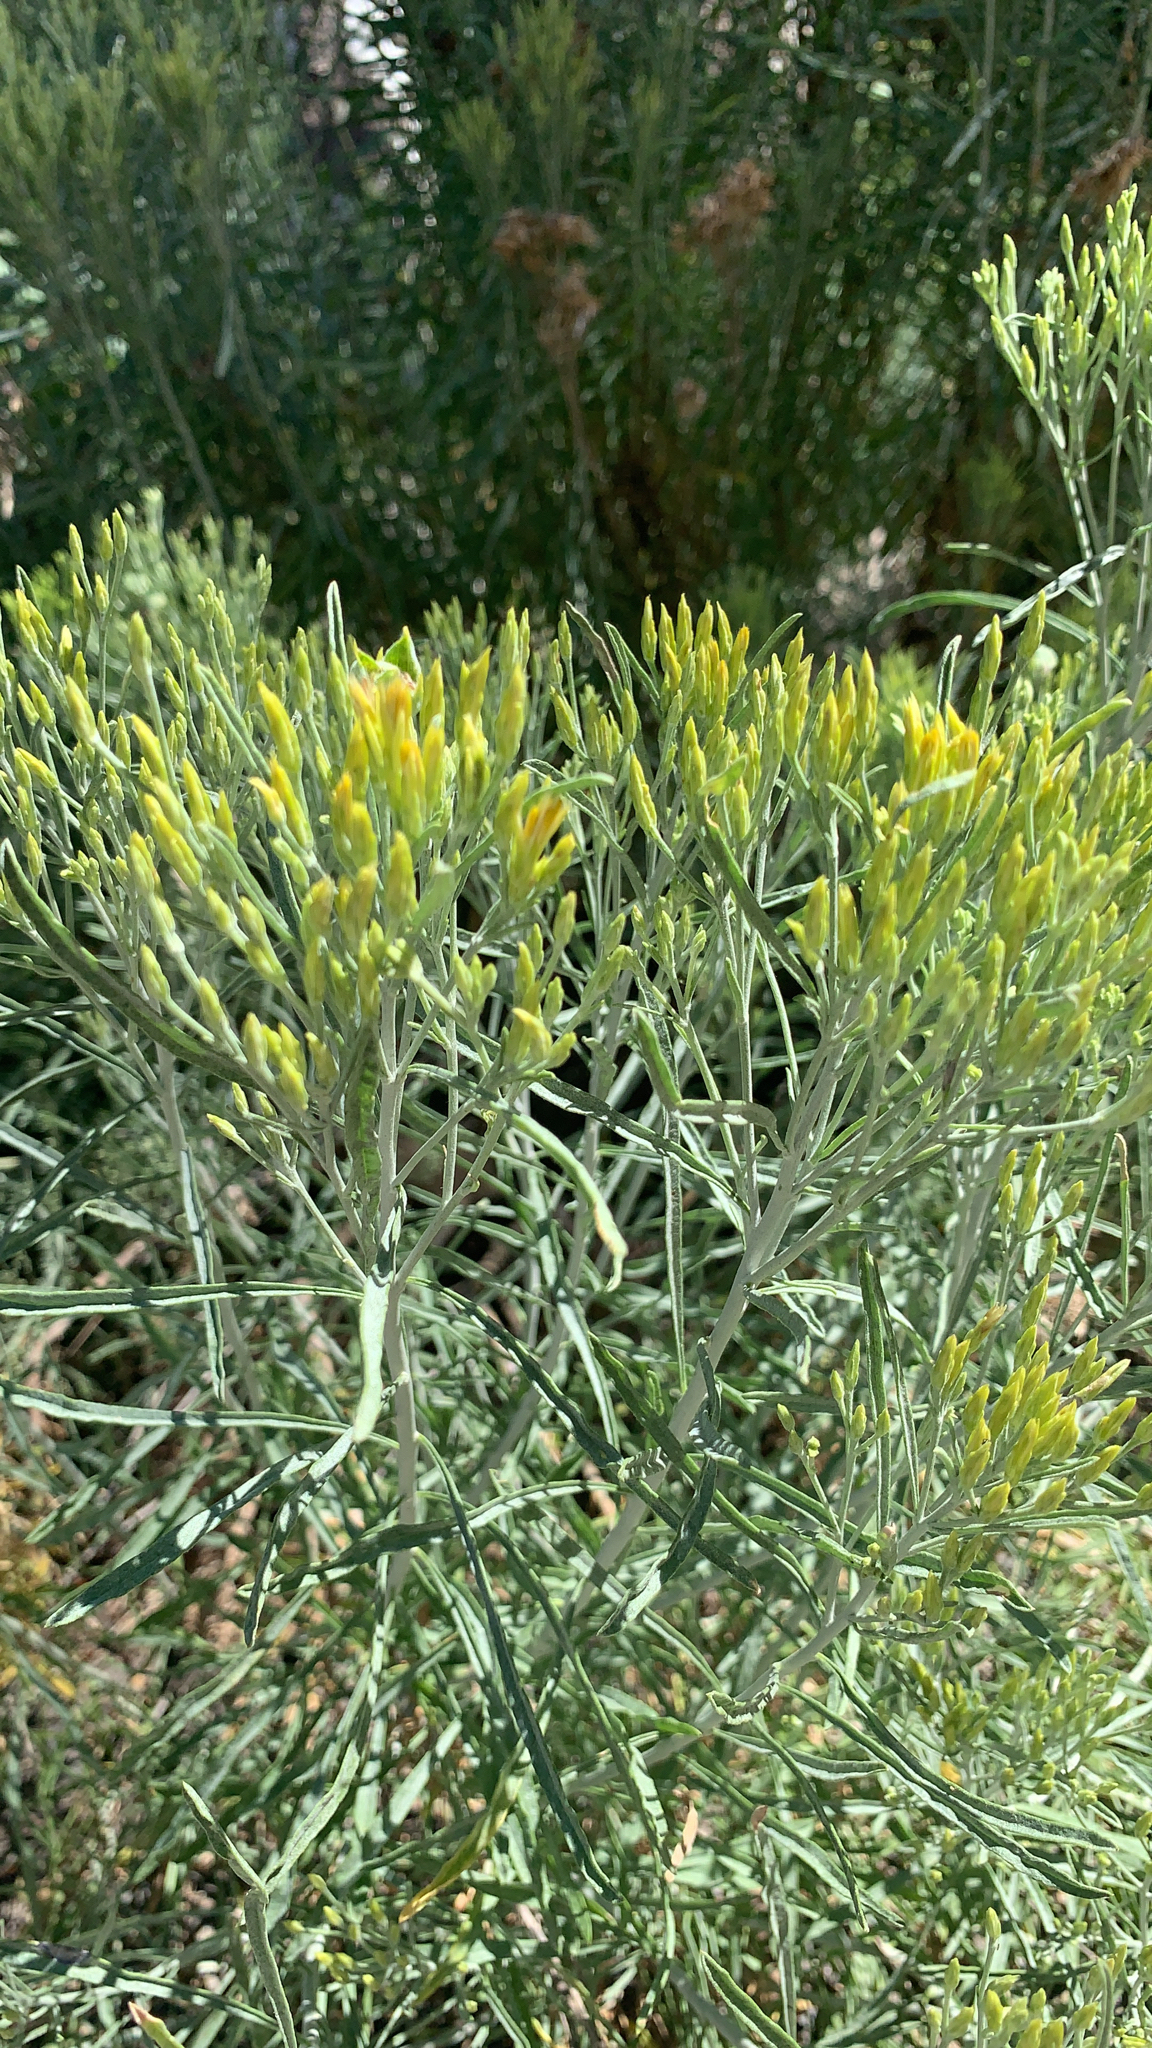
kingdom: Plantae
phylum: Tracheophyta
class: Magnoliopsida
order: Asterales
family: Asteraceae
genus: Ericameria
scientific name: Ericameria nauseosa
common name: Rubber rabbitbrush
